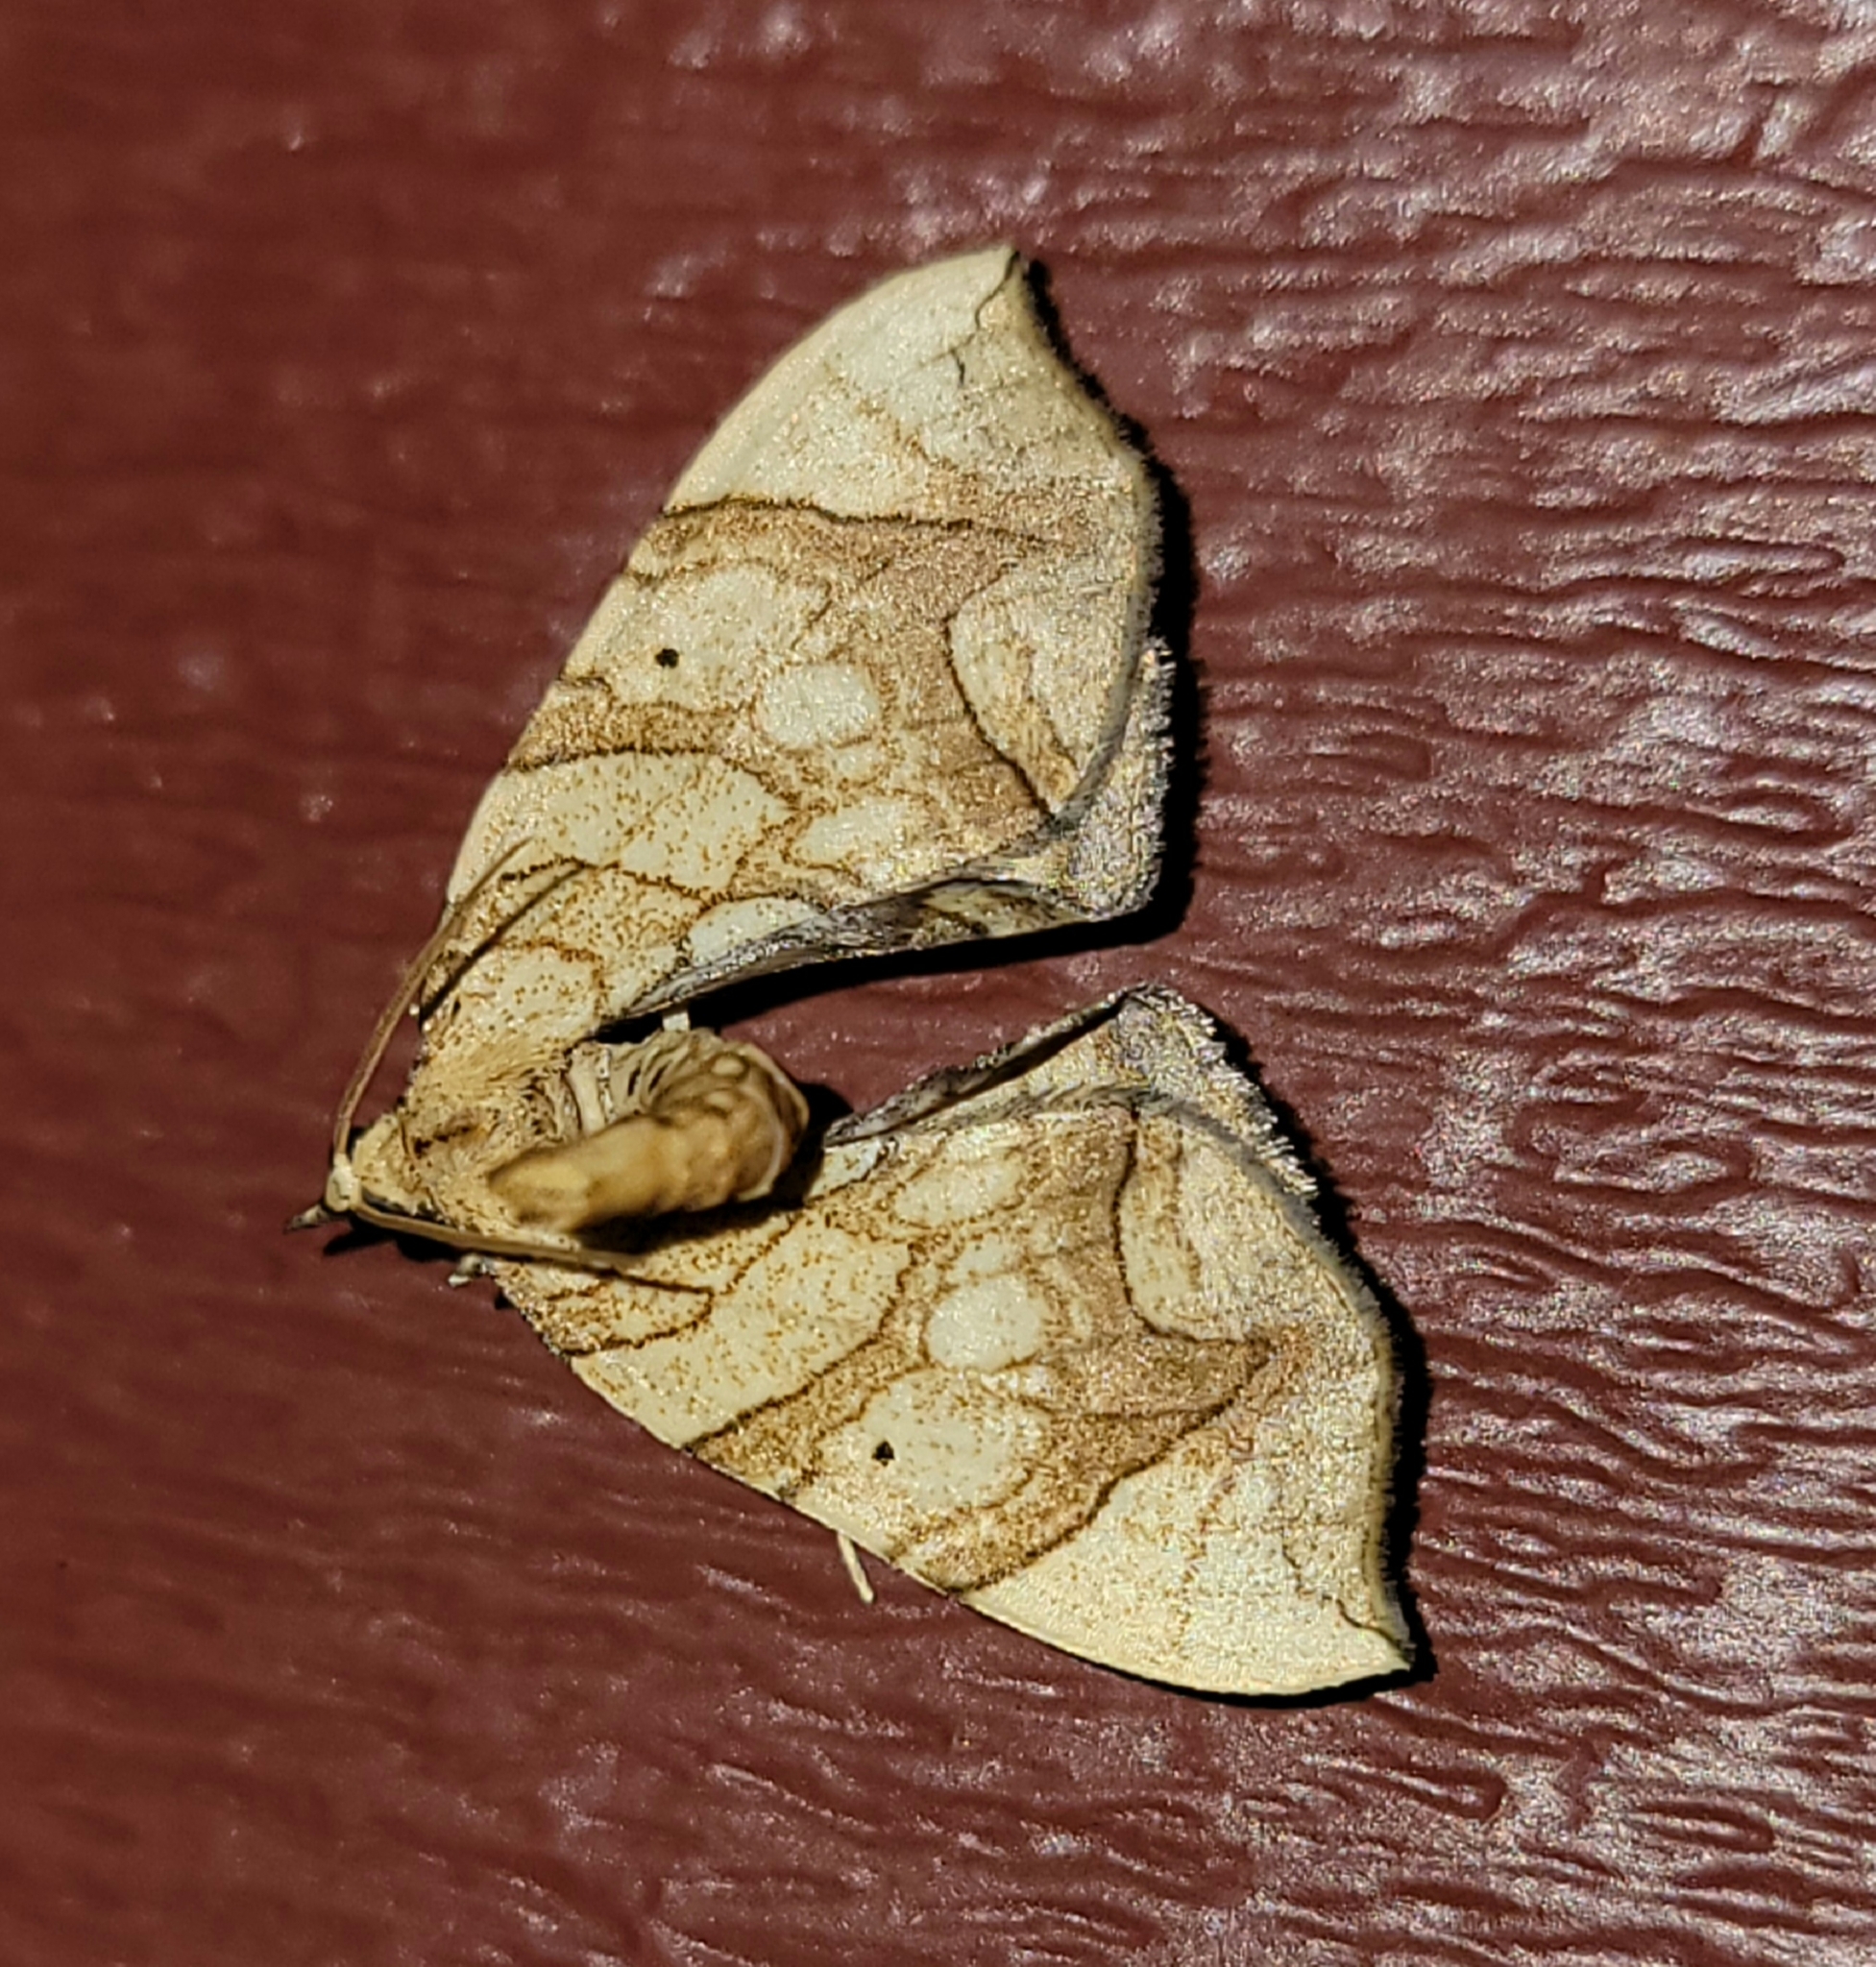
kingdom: Animalia
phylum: Arthropoda
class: Insecta
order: Lepidoptera
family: Geometridae
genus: Eulithis
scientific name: Eulithis
